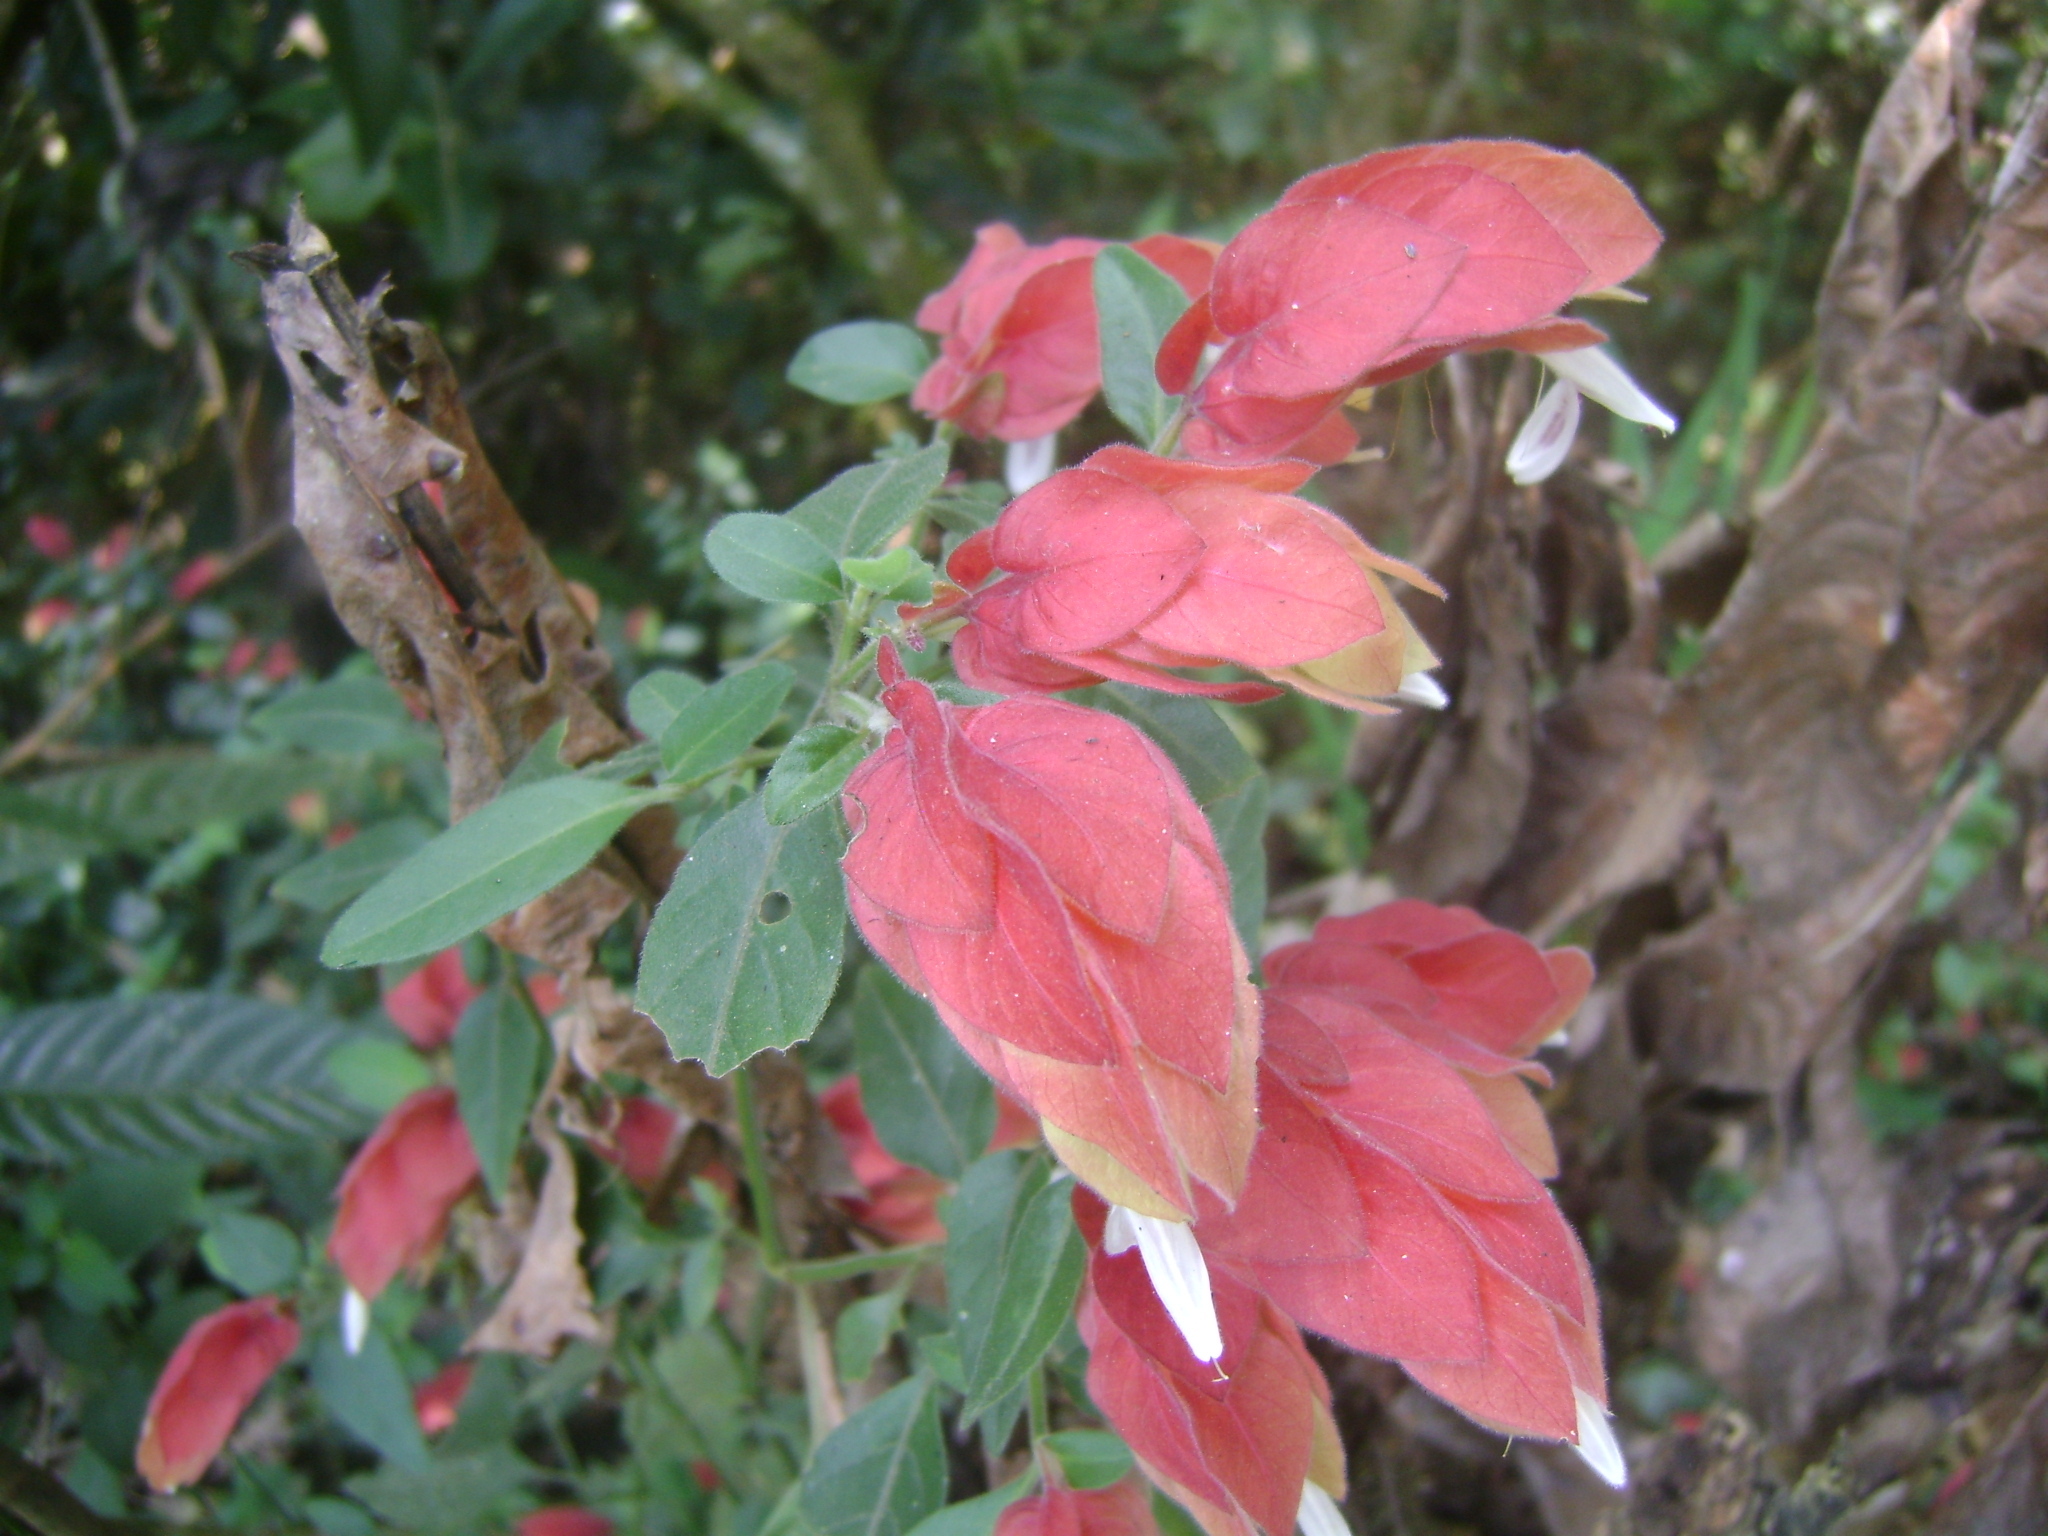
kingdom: Plantae
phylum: Tracheophyta
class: Magnoliopsida
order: Lamiales
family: Acanthaceae
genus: Justicia
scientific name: Justicia brandegeeana
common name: Shrimpplant
